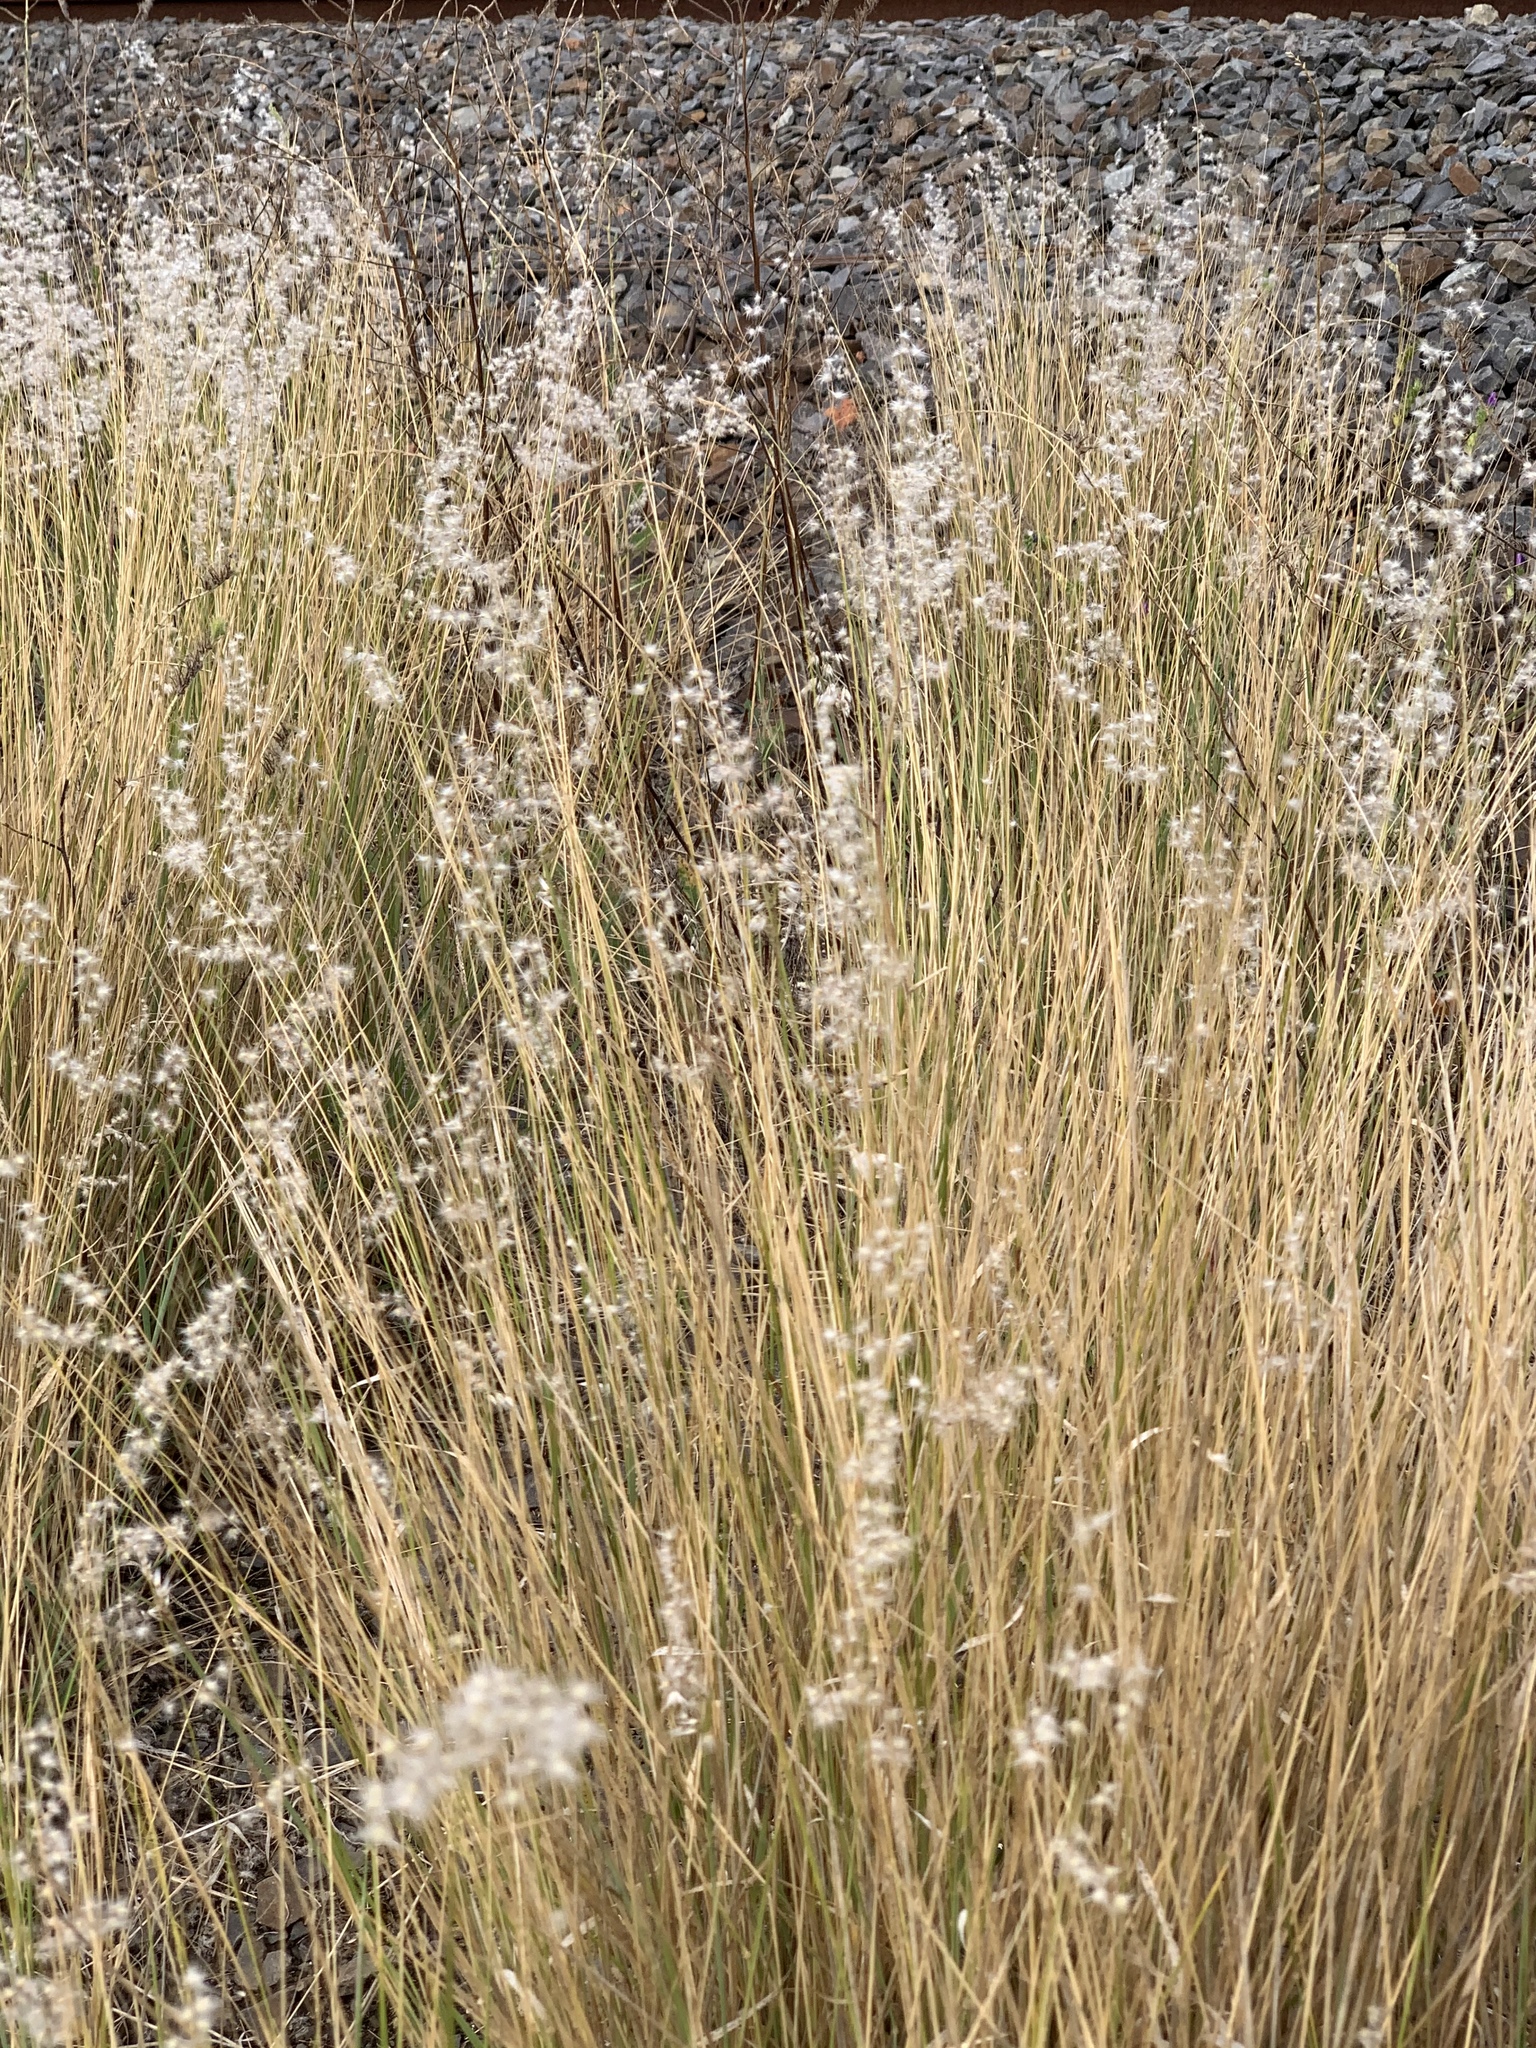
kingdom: Plantae
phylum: Tracheophyta
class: Liliopsida
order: Poales
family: Poaceae
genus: Melinis
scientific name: Melinis repens
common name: Rose natal grass
